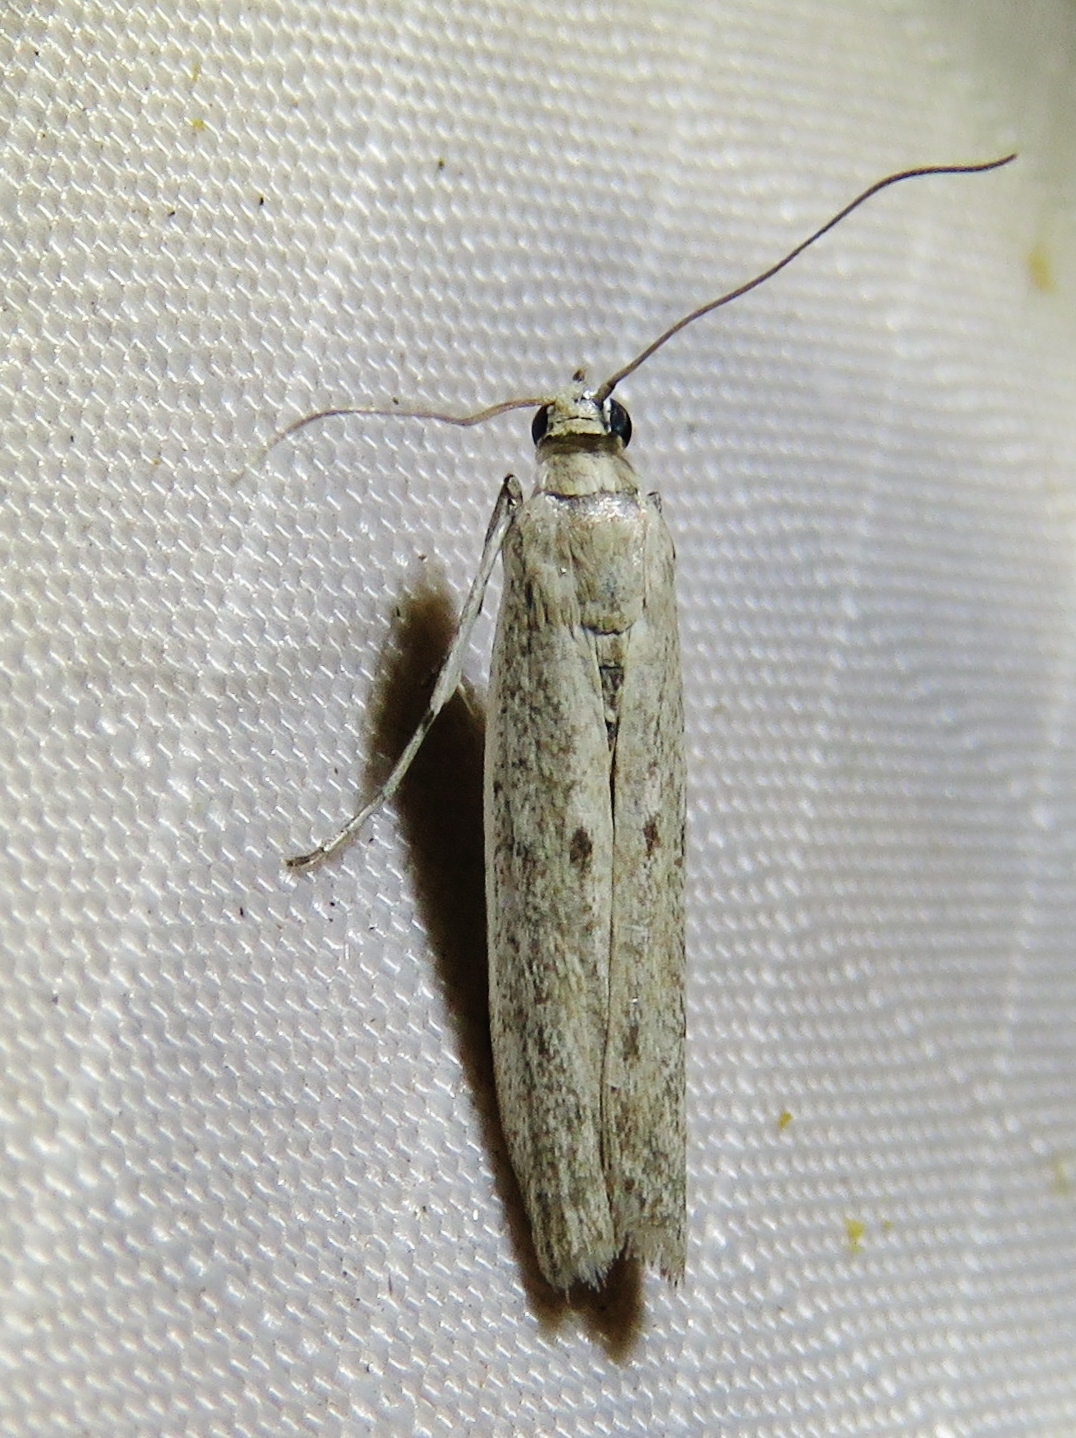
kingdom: Animalia
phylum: Arthropoda
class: Insecta
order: Lepidoptera
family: Pyralidae
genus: Homoeosoma
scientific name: Homoeosoma electella
